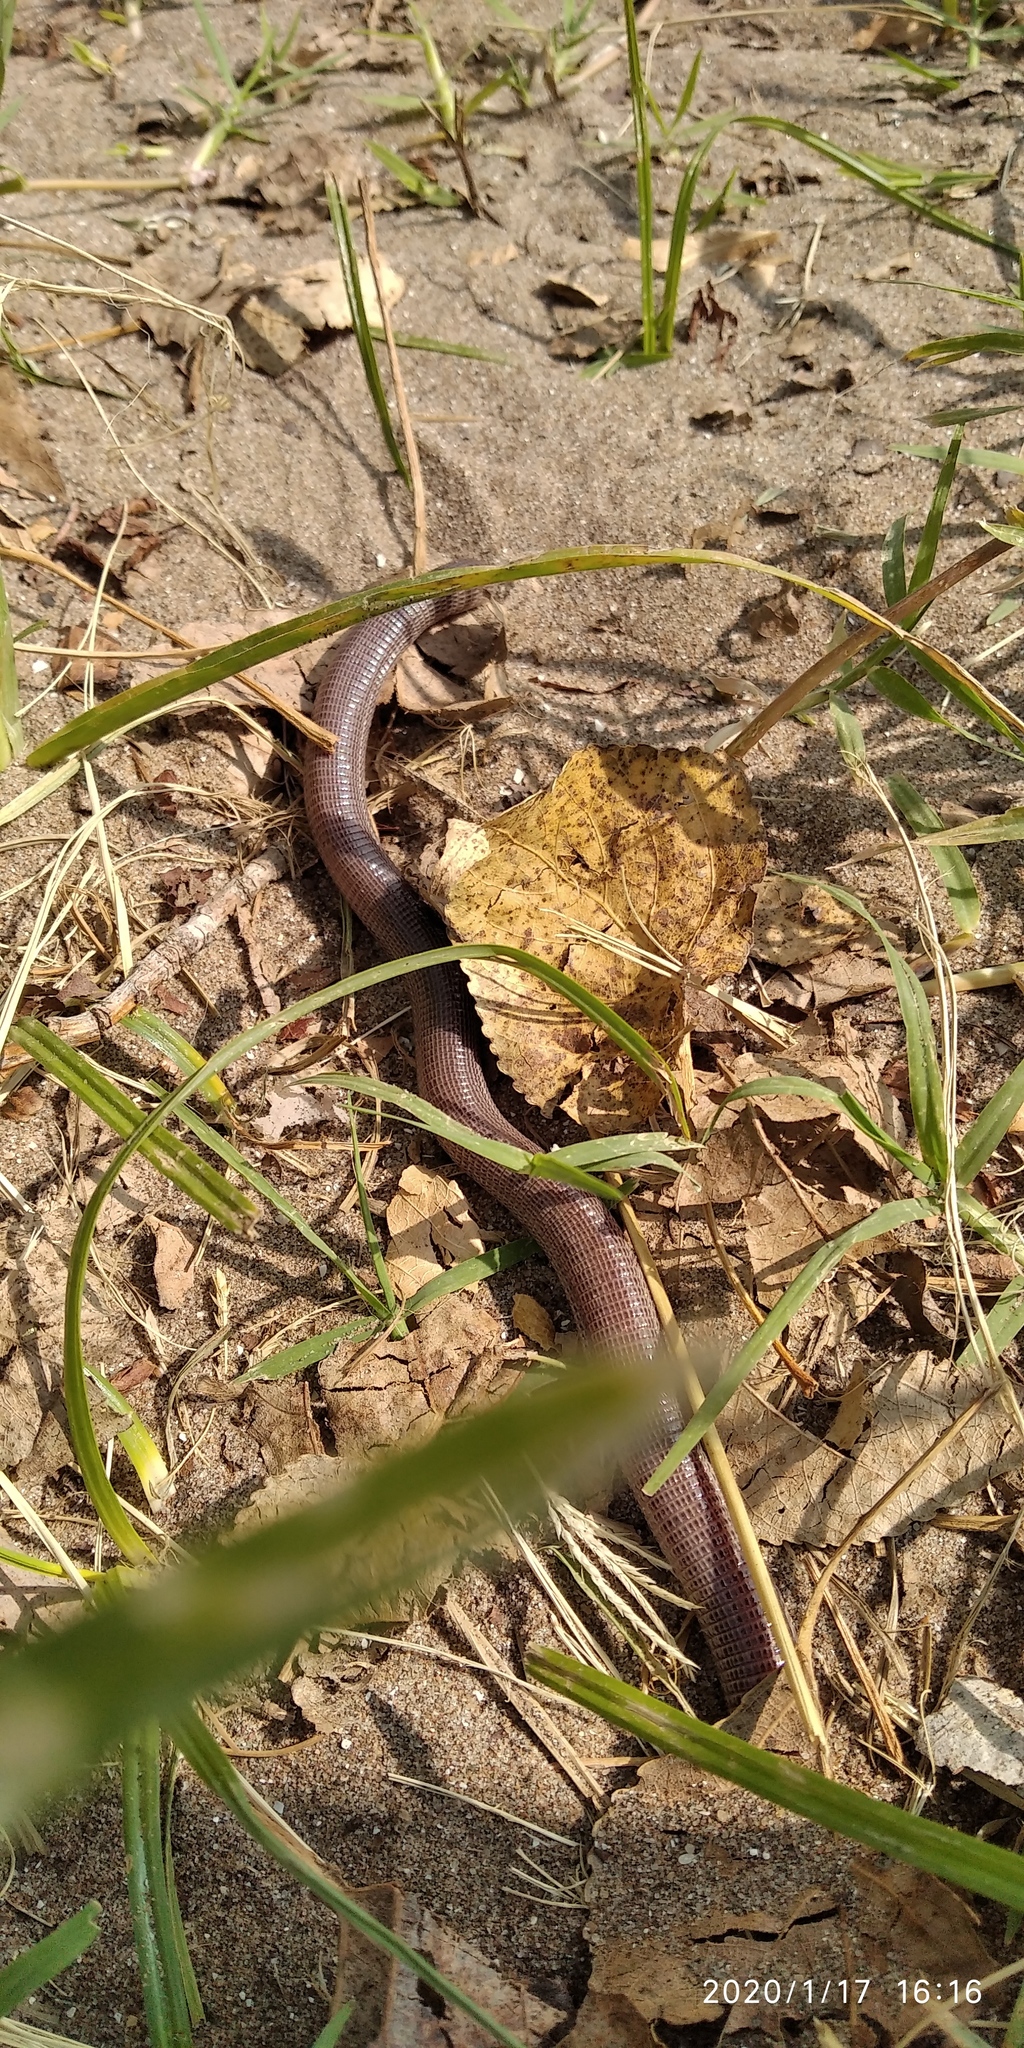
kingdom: Animalia
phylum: Chordata
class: Squamata
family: Amphisbaenidae
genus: Amphisbaena
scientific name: Amphisbaena darwinii
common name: Darwin's ringed worm lizard
